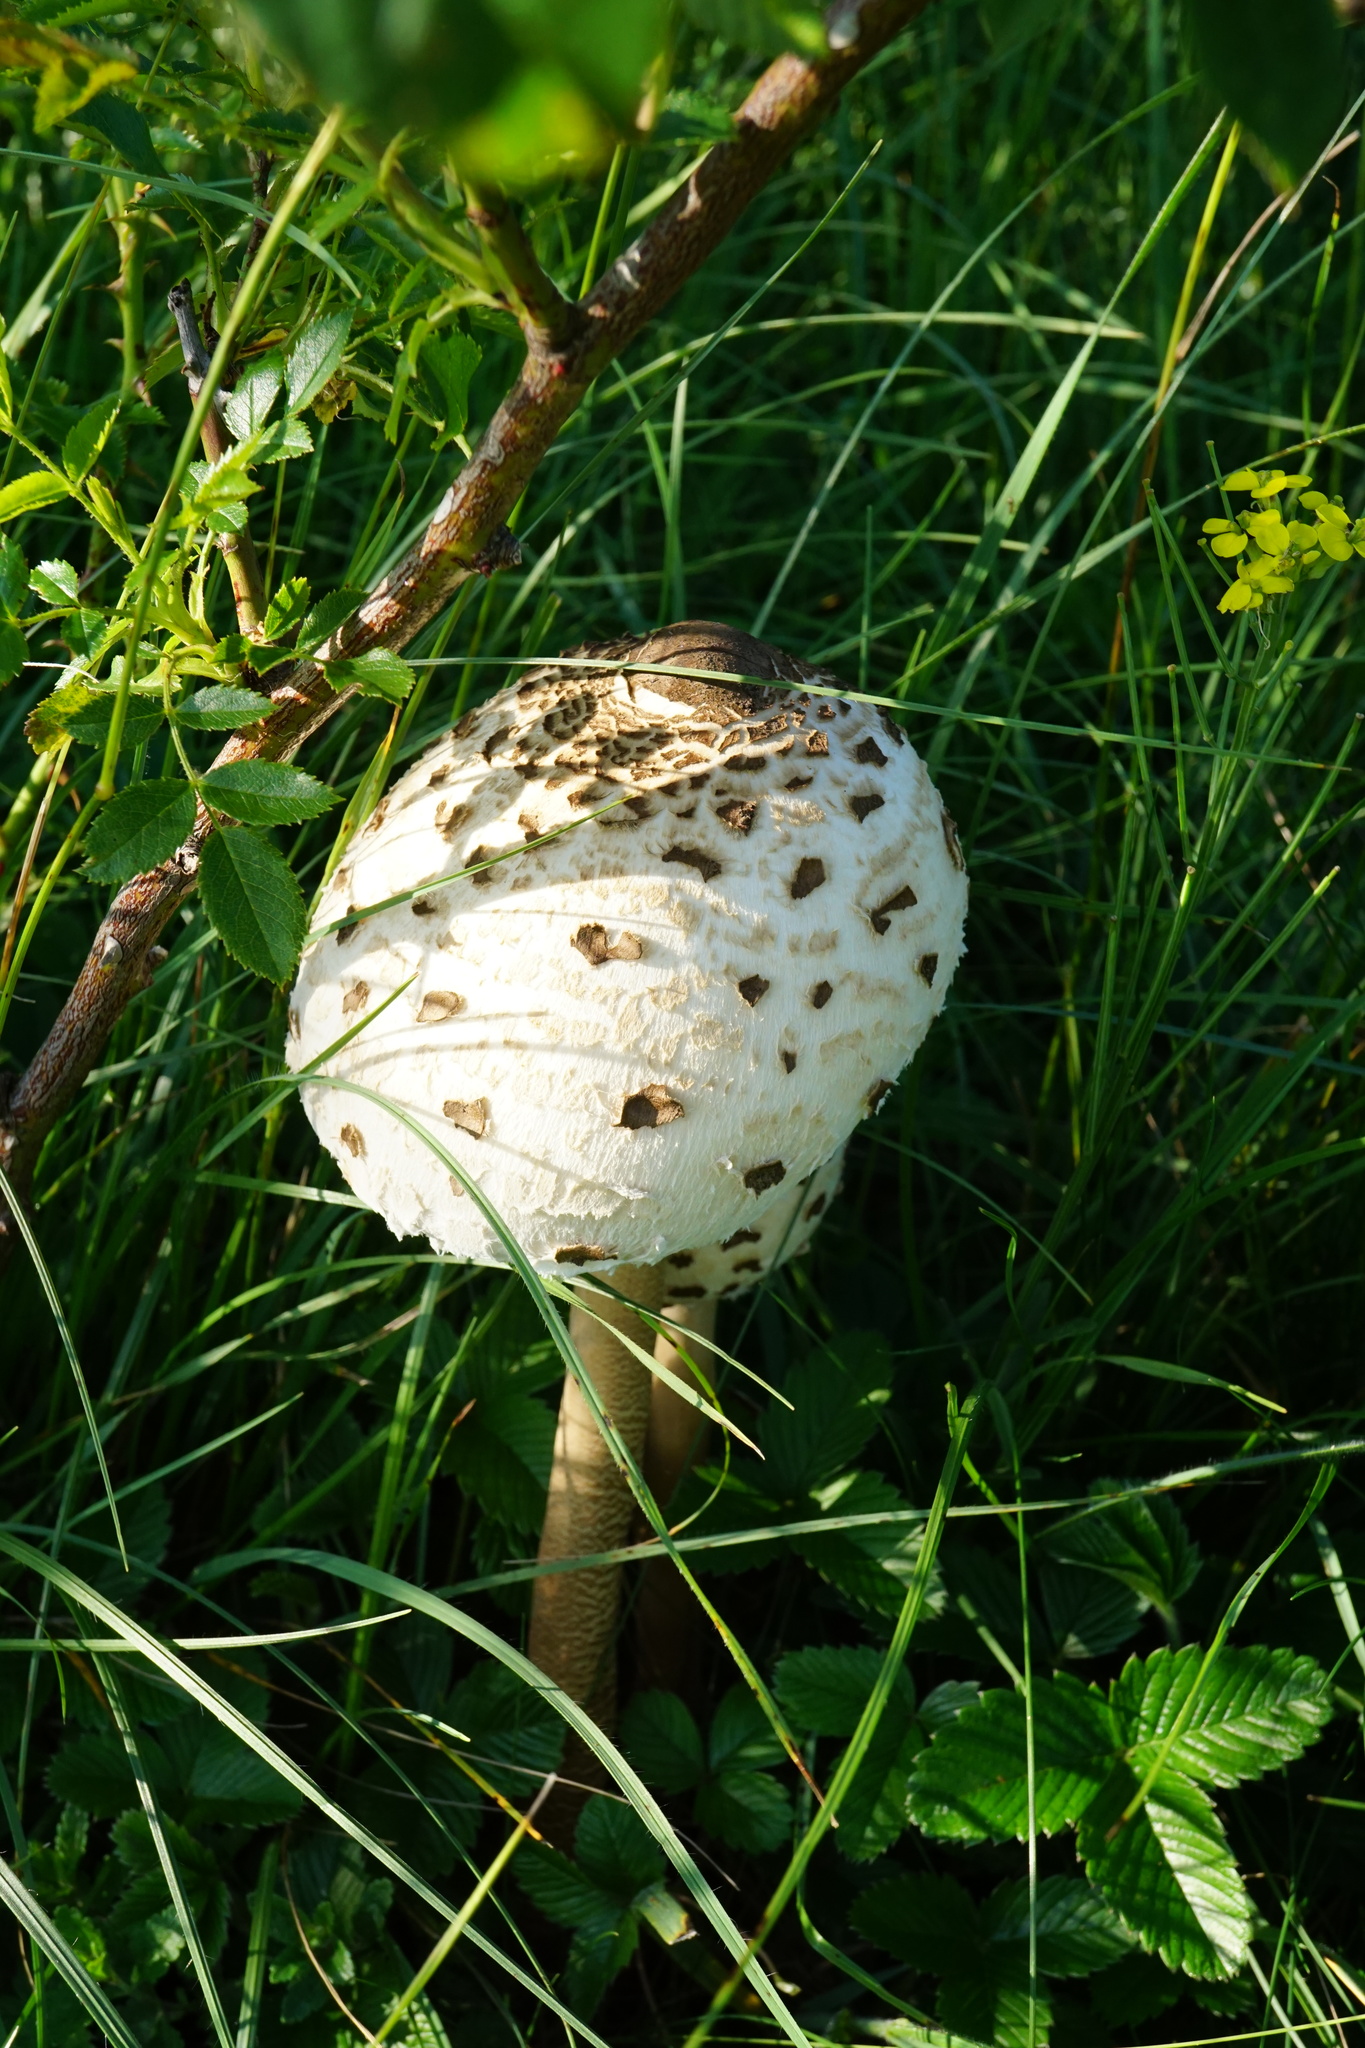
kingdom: Fungi
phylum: Basidiomycota
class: Agaricomycetes
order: Agaricales
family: Agaricaceae
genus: Macrolepiota
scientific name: Macrolepiota procera
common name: Parasol
